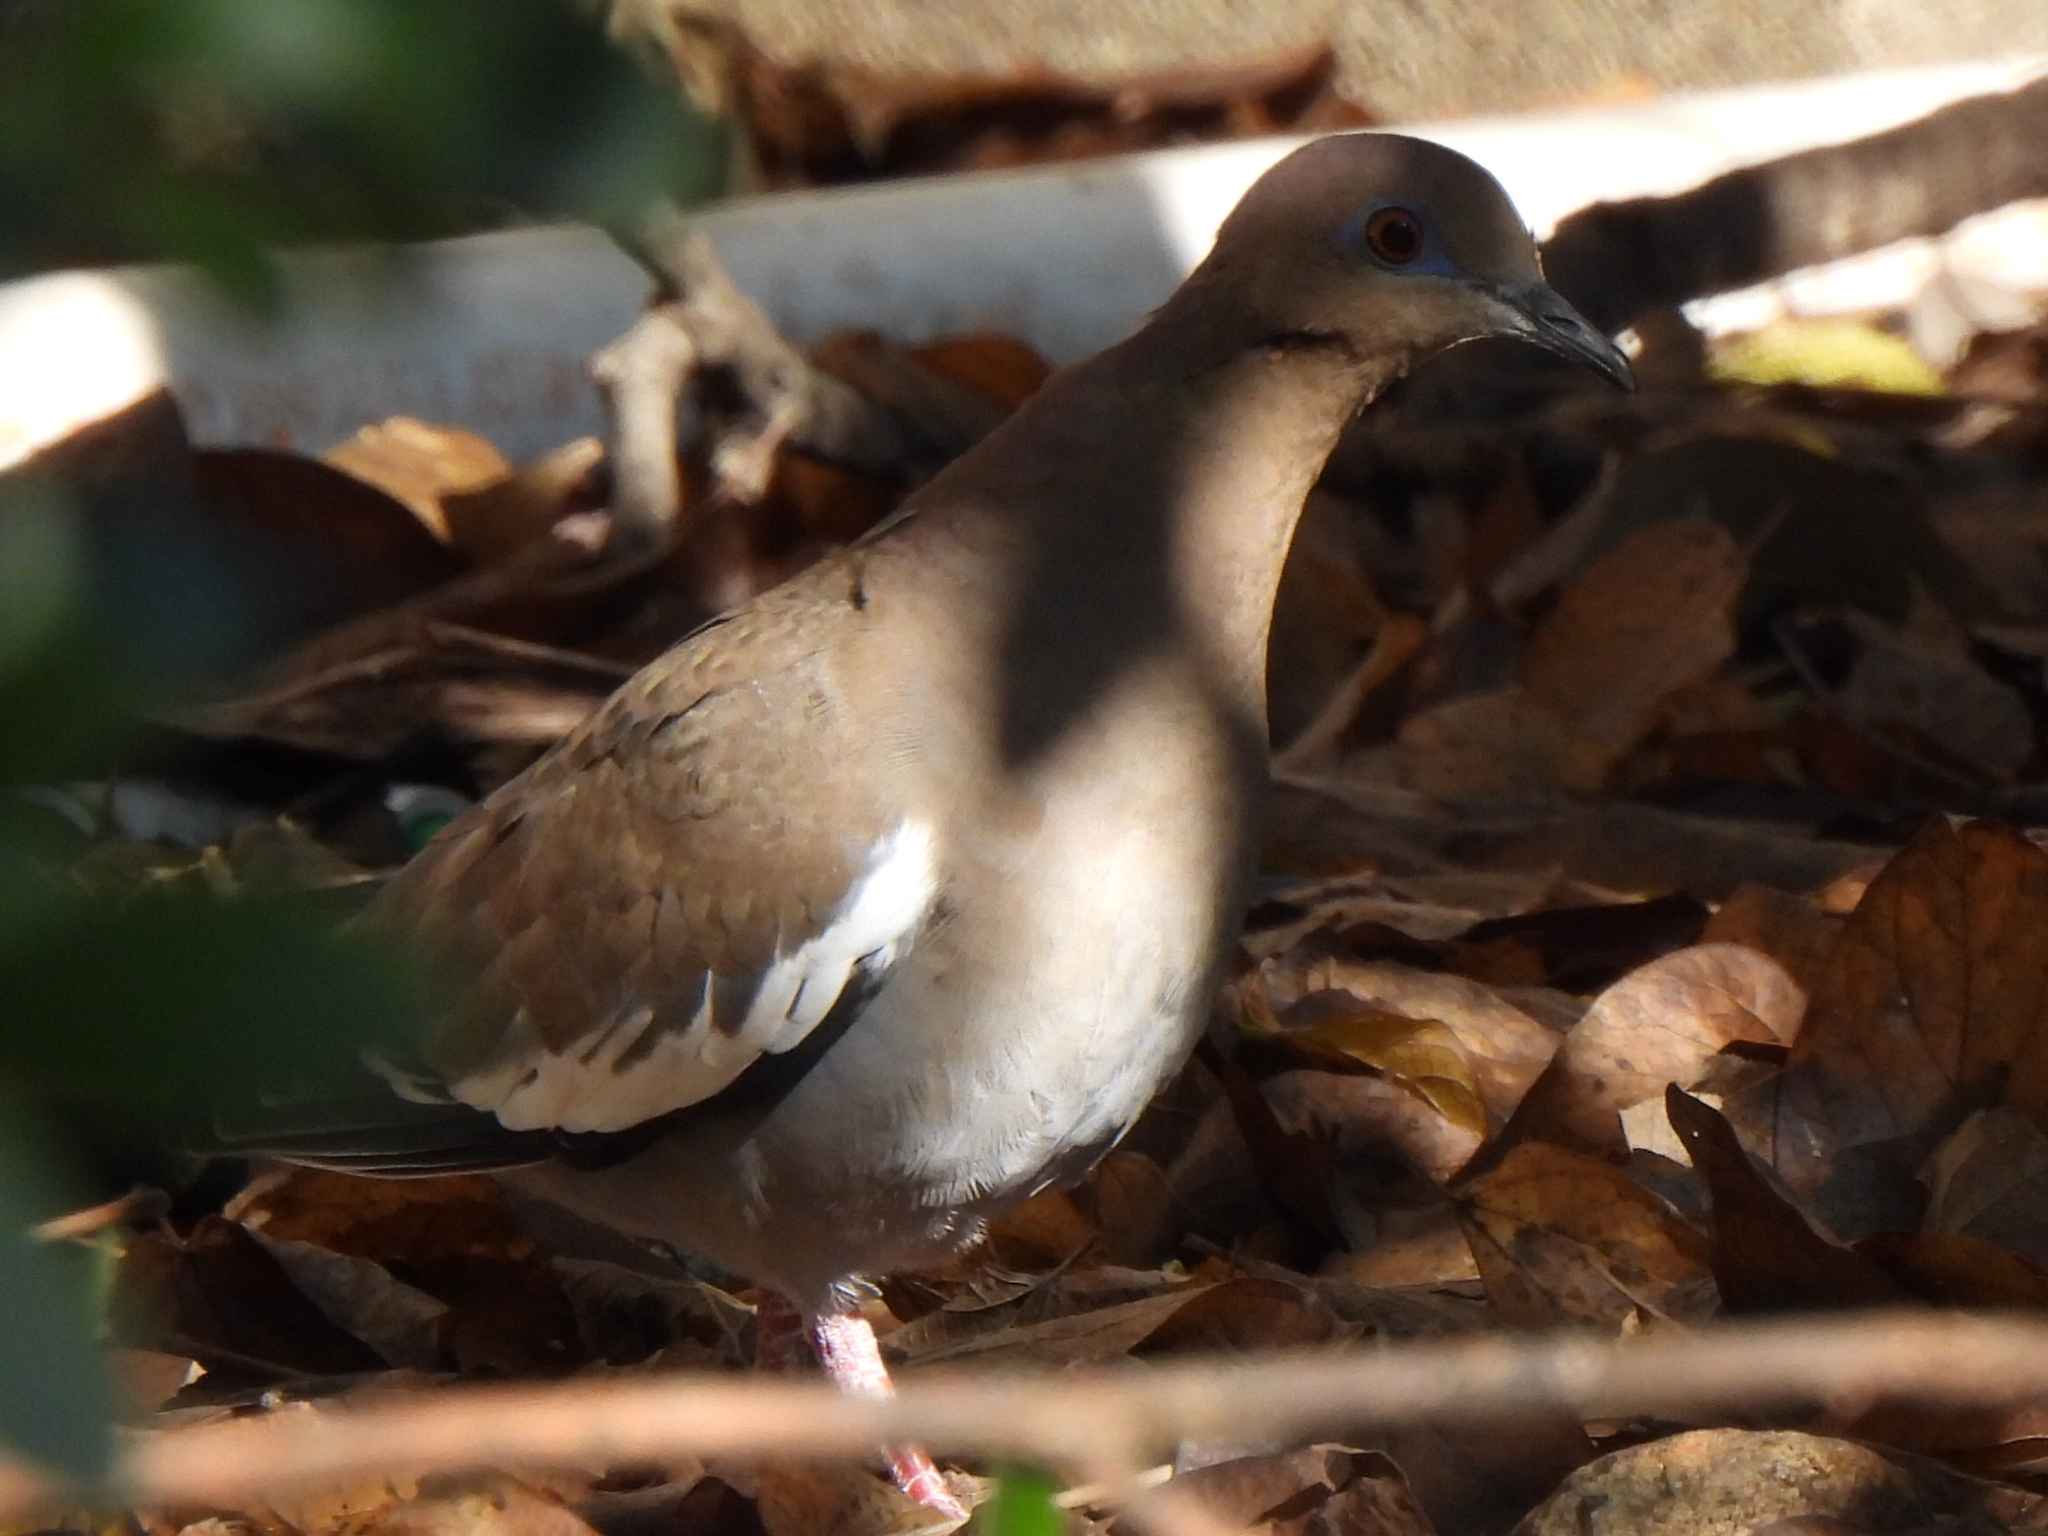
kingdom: Animalia
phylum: Chordata
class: Aves
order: Columbiformes
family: Columbidae
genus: Zenaida
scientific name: Zenaida asiatica
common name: White-winged dove
